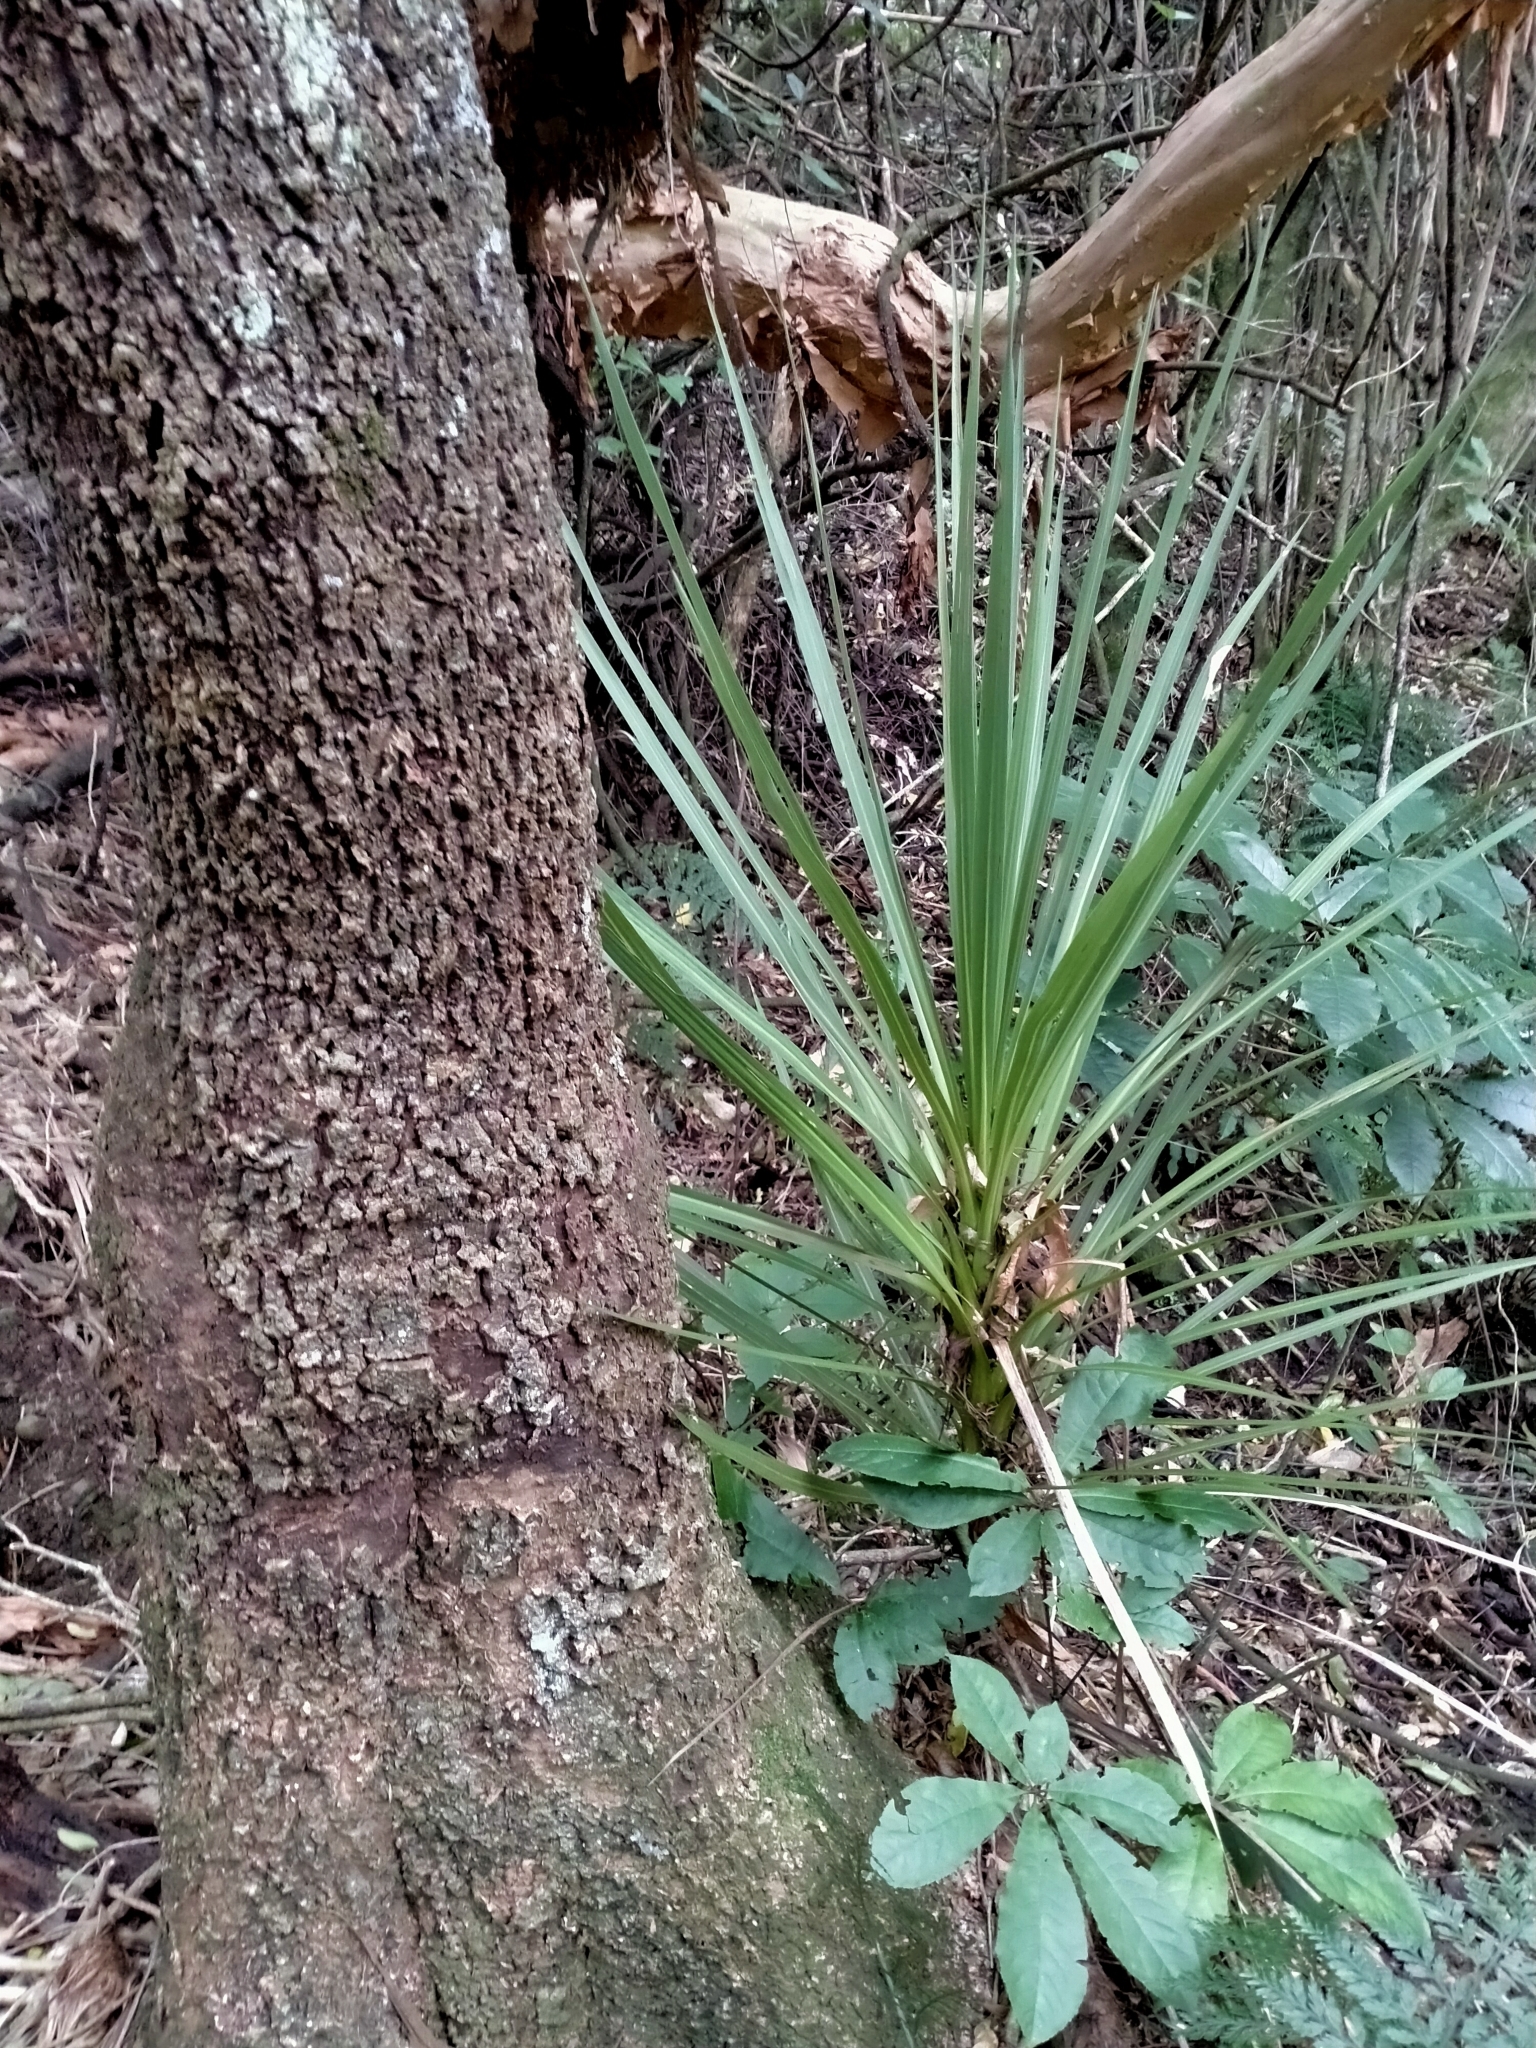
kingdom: Plantae
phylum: Tracheophyta
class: Liliopsida
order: Asparagales
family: Asparagaceae
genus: Cordyline
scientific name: Cordyline australis
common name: Cabbage-palm
